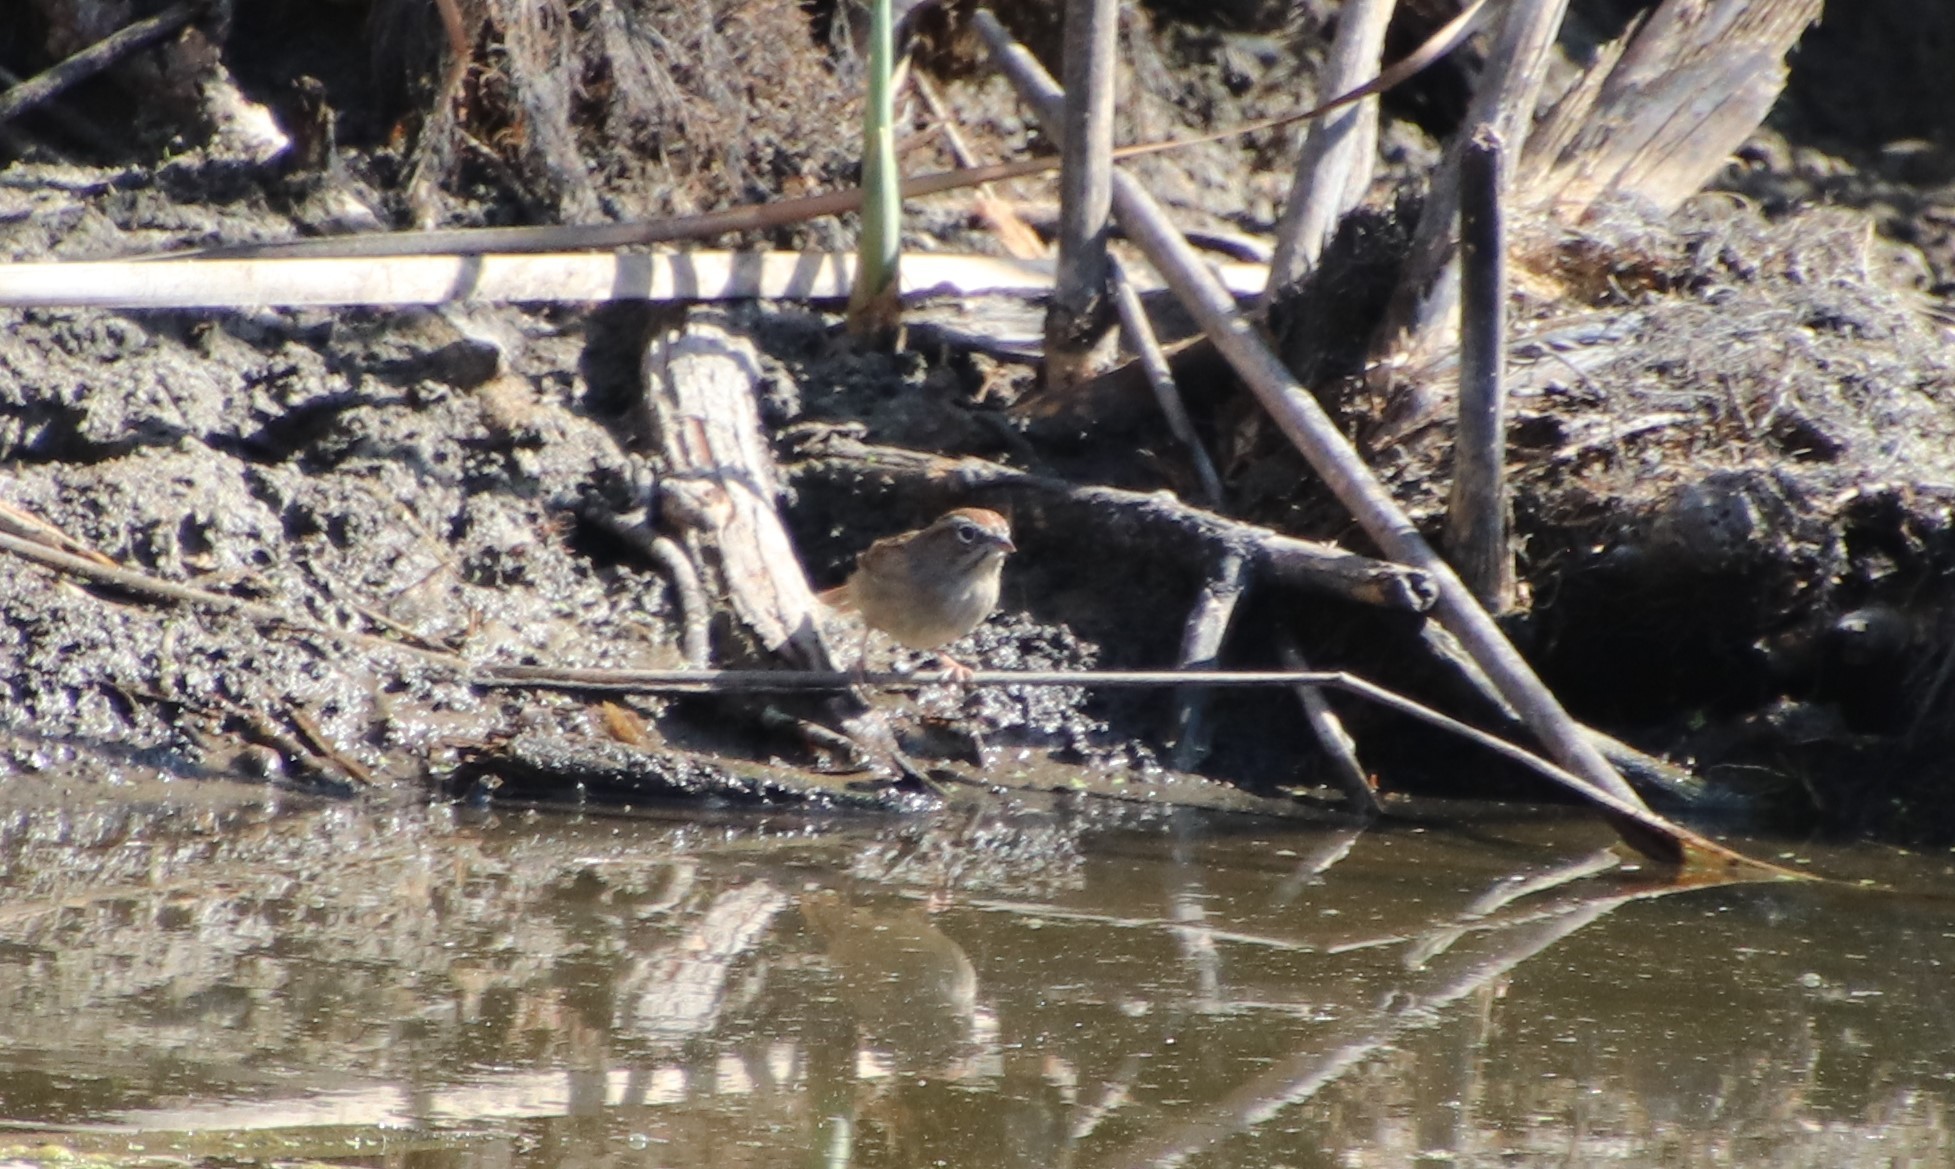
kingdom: Animalia
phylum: Chordata
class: Aves
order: Passeriformes
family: Passerellidae
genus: Aimophila
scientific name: Aimophila ruficeps
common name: Rufous-crowned sparrow
